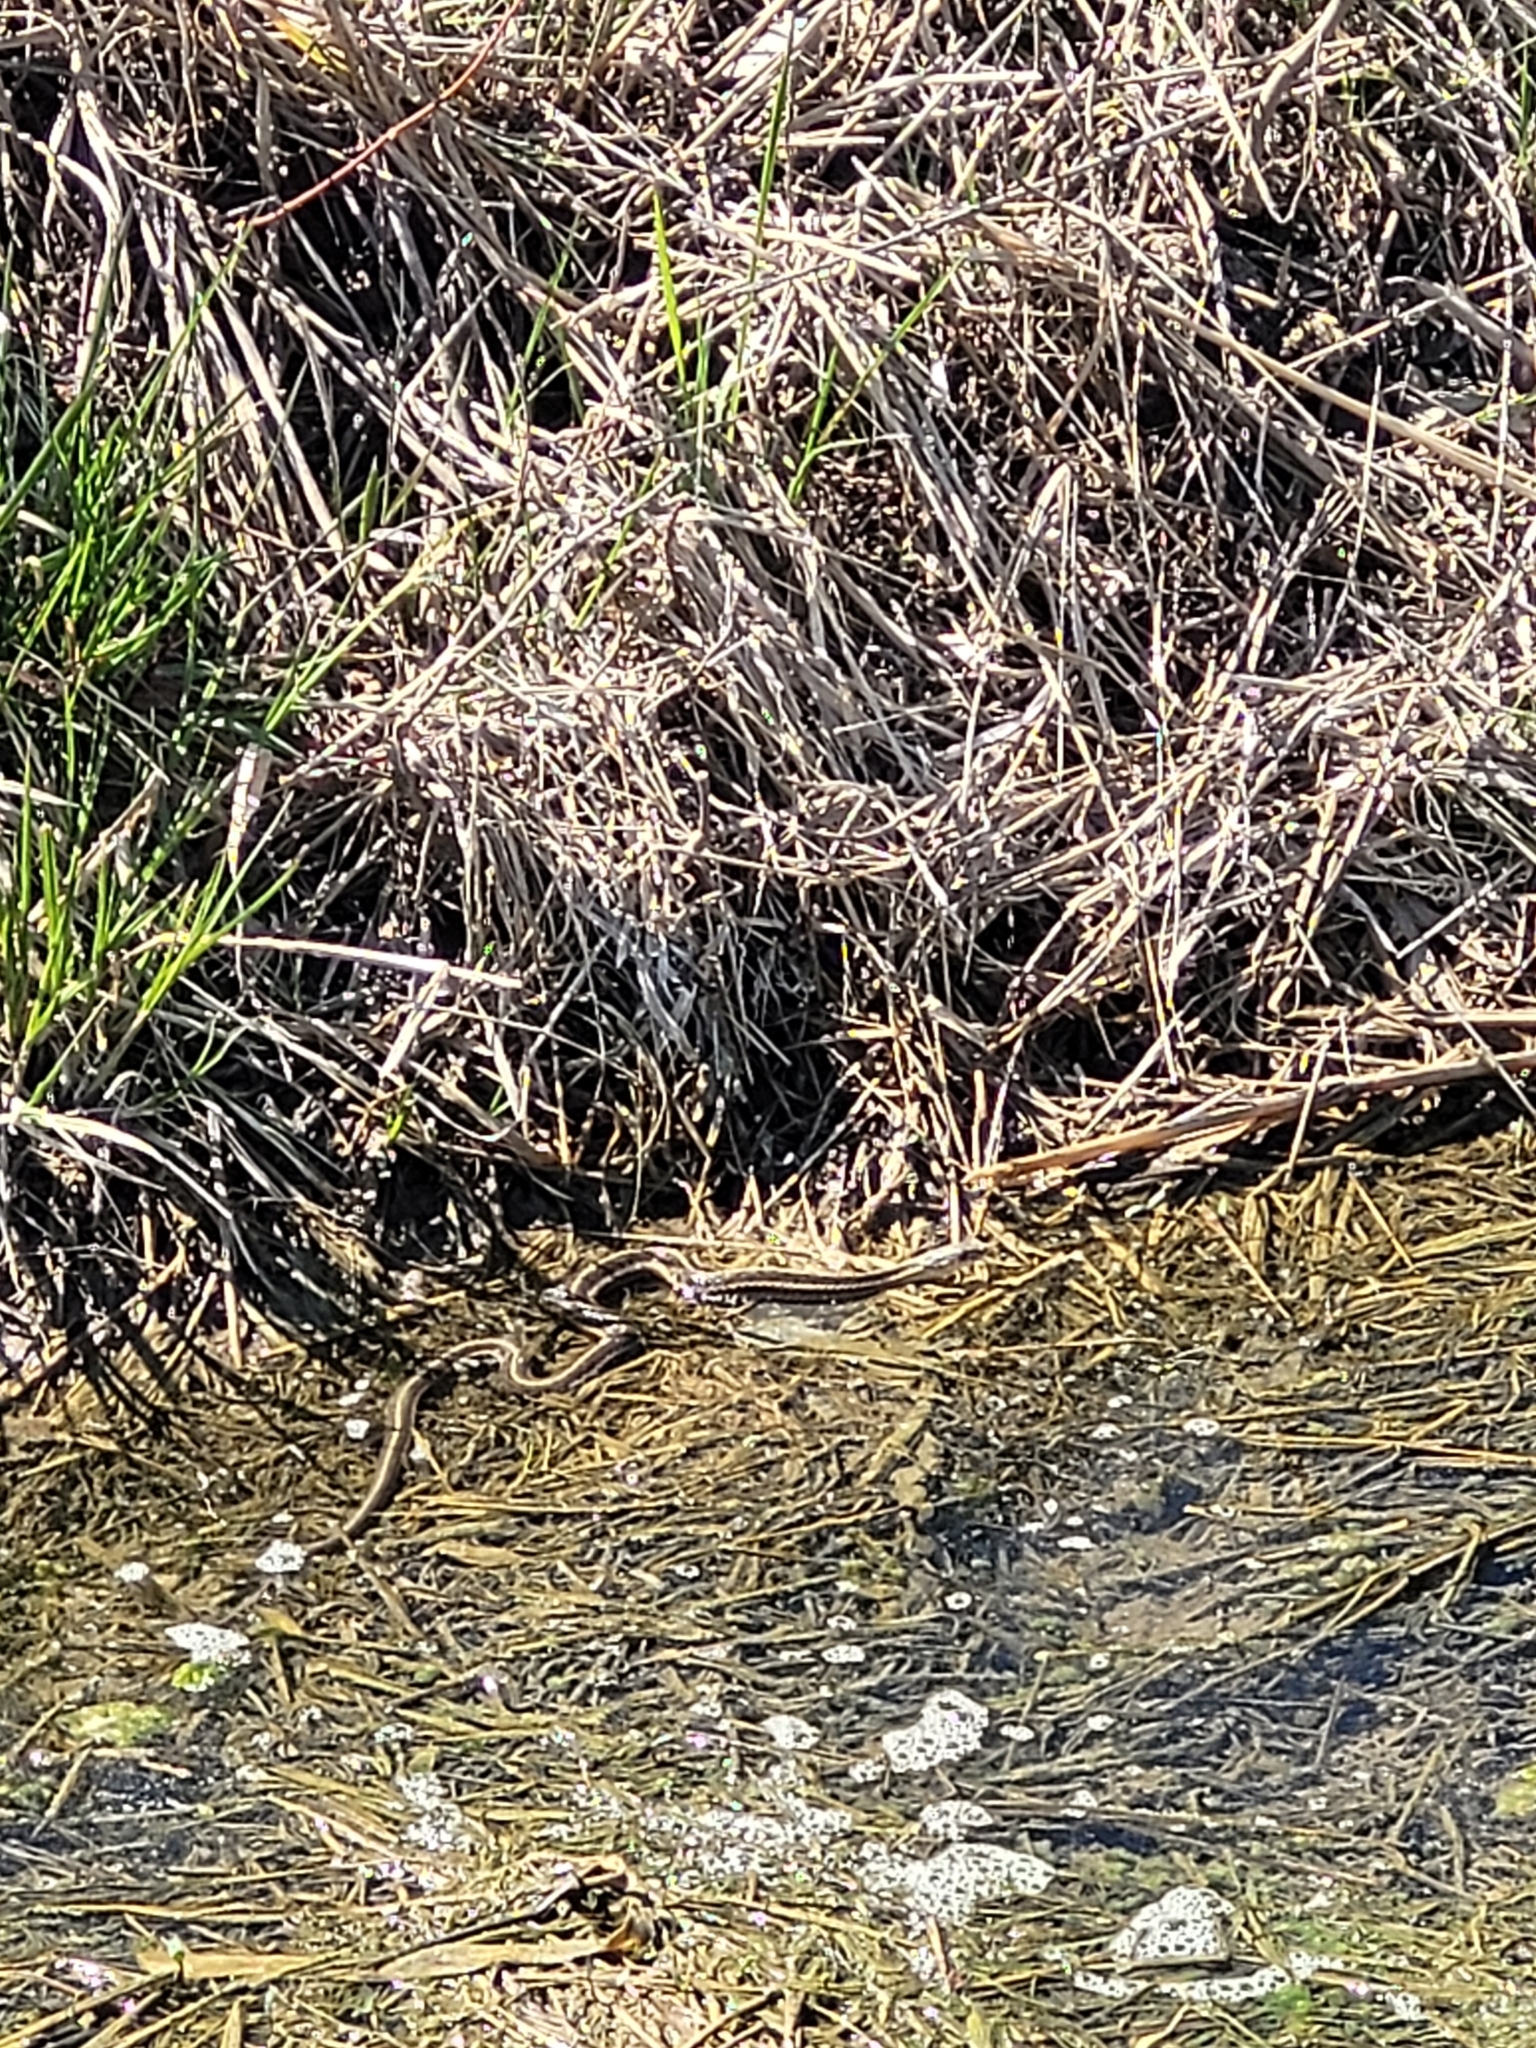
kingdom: Animalia
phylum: Chordata
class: Squamata
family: Colubridae
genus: Thamnophis
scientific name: Thamnophis sirtalis
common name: Common garter snake
